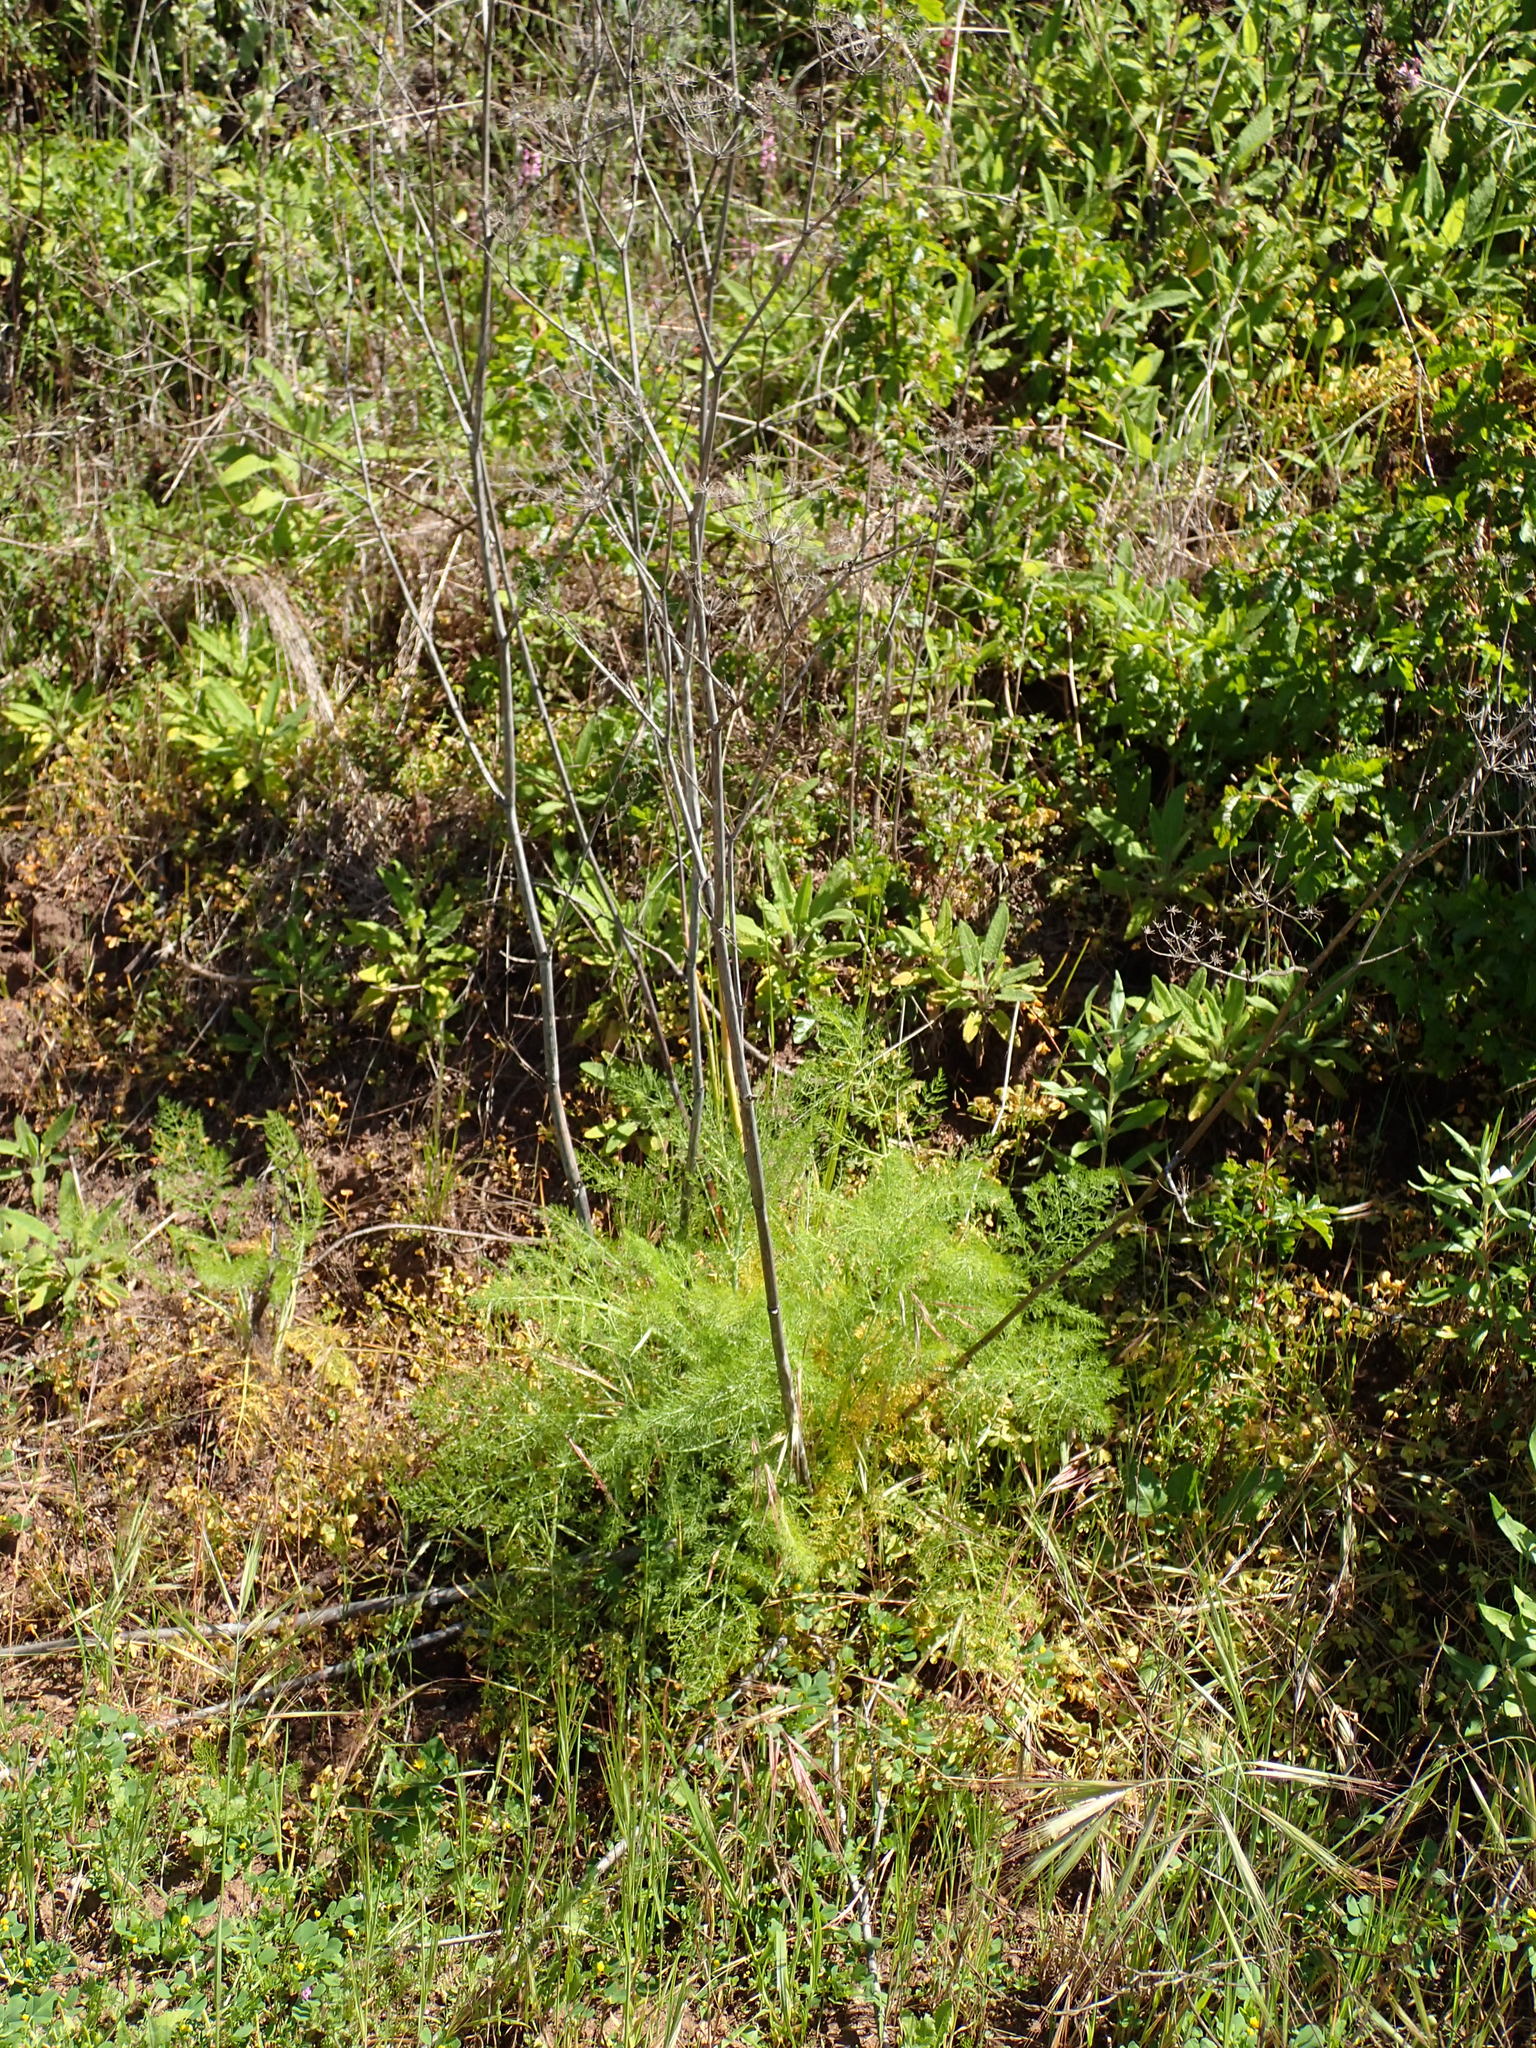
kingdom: Plantae
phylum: Tracheophyta
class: Magnoliopsida
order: Apiales
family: Apiaceae
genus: Foeniculum
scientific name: Foeniculum vulgare
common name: Fennel
